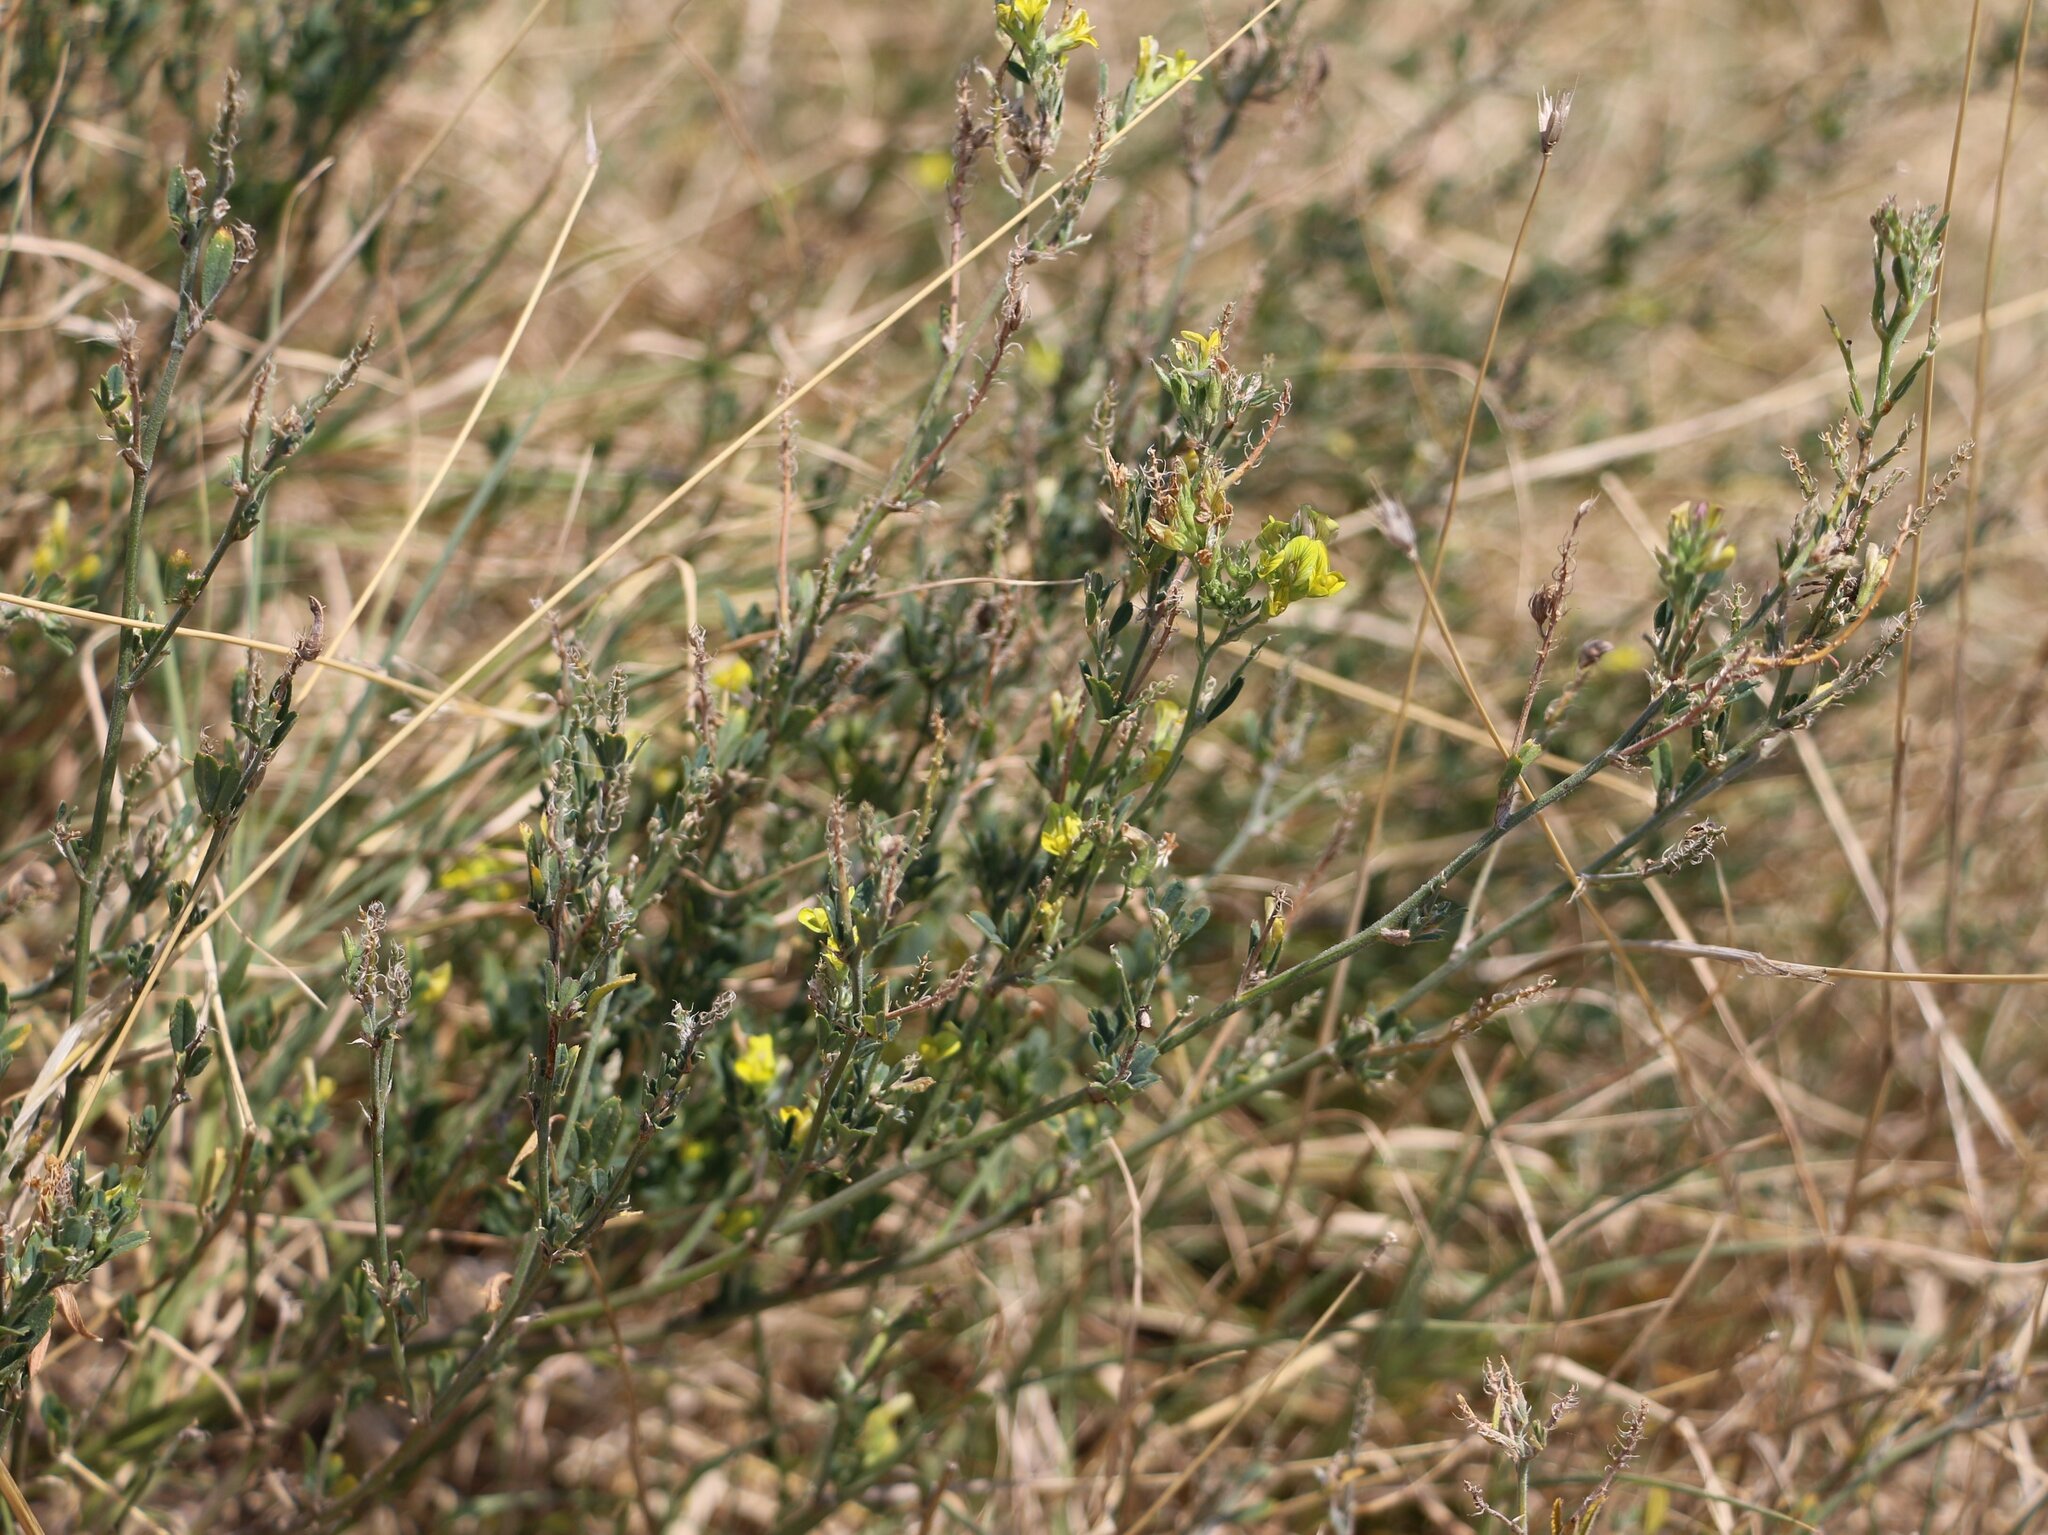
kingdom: Plantae
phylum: Tracheophyta
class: Magnoliopsida
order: Fabales
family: Fabaceae
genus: Medicago
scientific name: Medicago falcata
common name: Sickle medick
